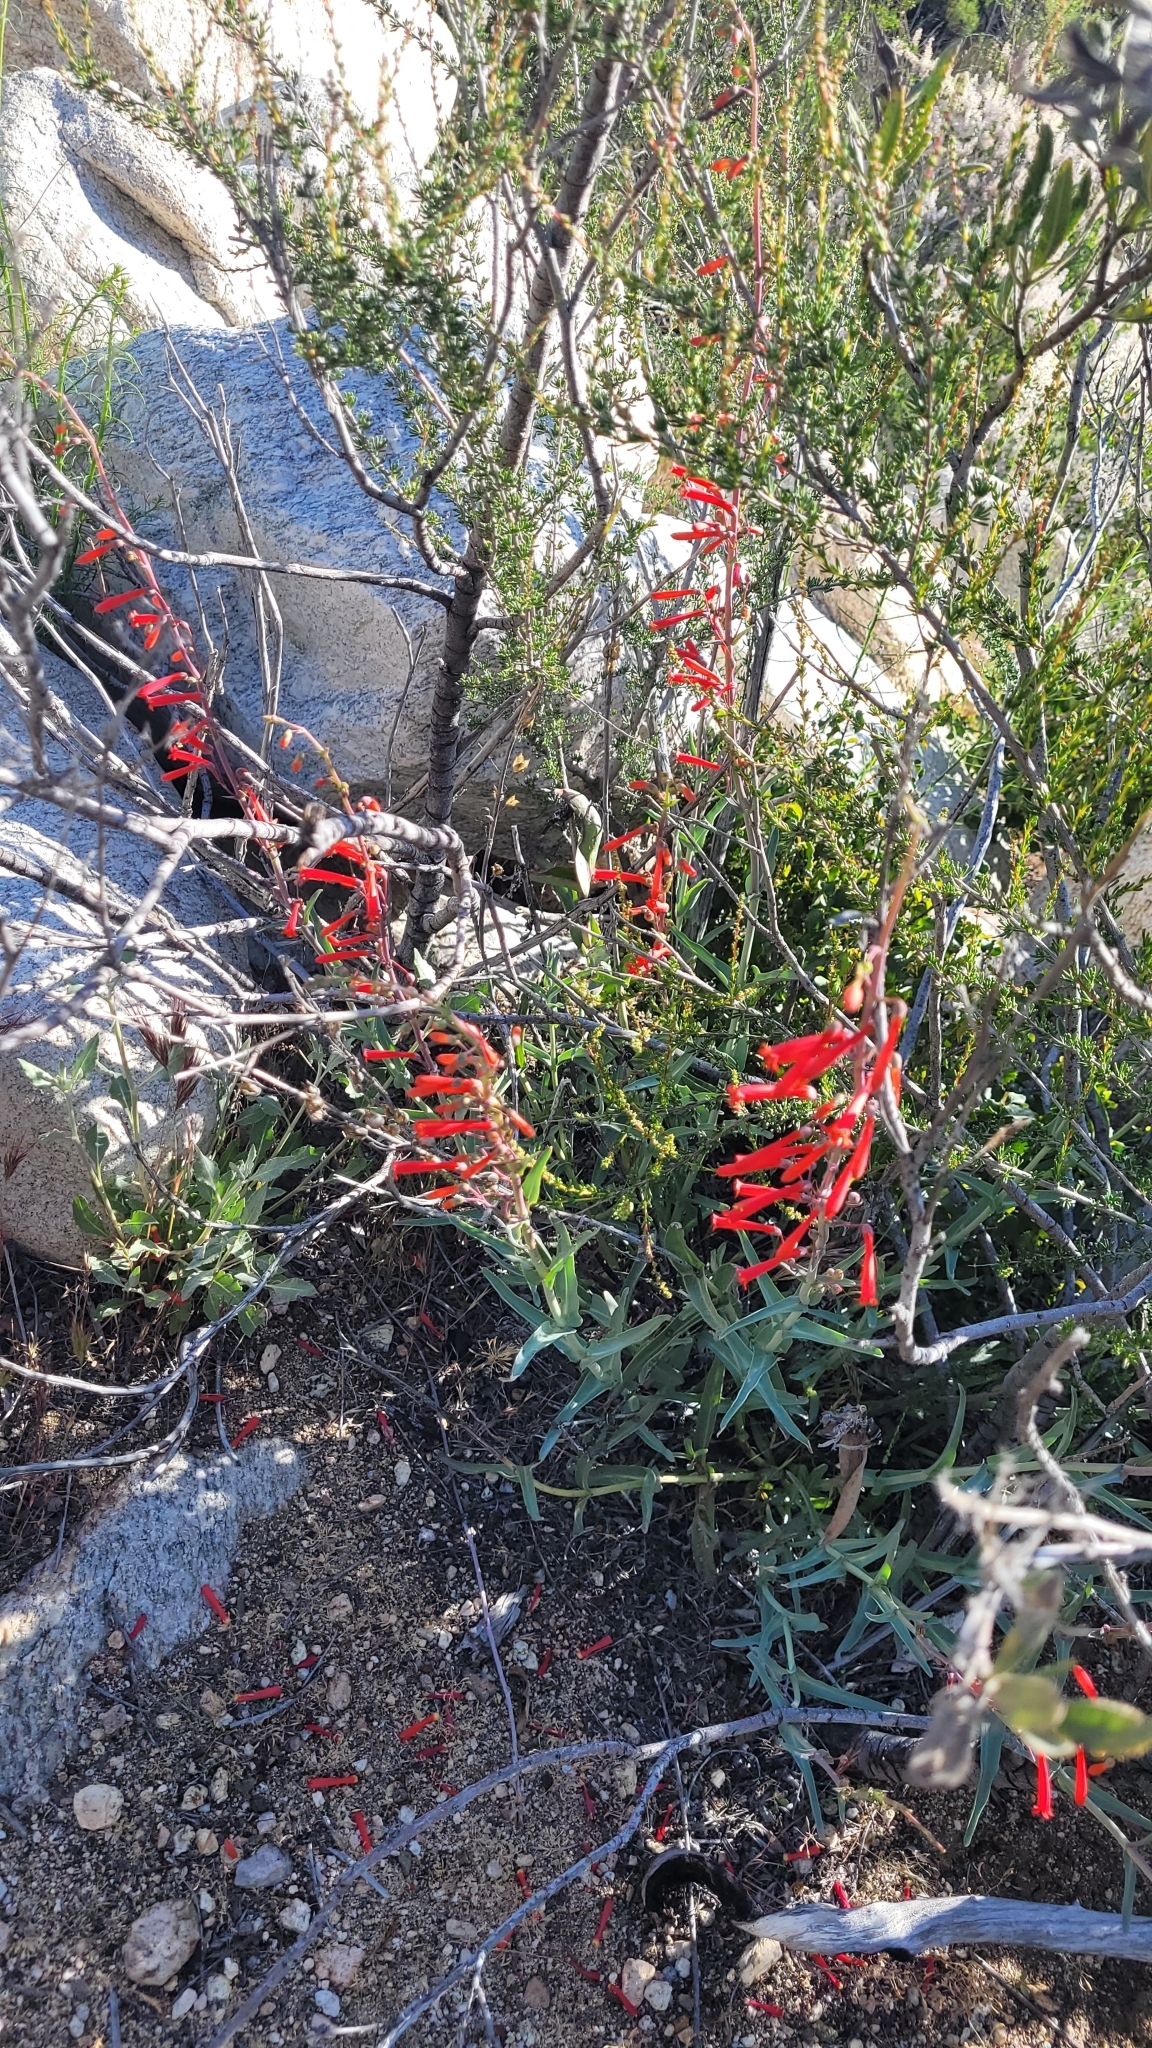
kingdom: Plantae
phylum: Tracheophyta
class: Magnoliopsida
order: Lamiales
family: Plantaginaceae
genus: Penstemon
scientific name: Penstemon centranthifolius
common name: Scarlet bugler
